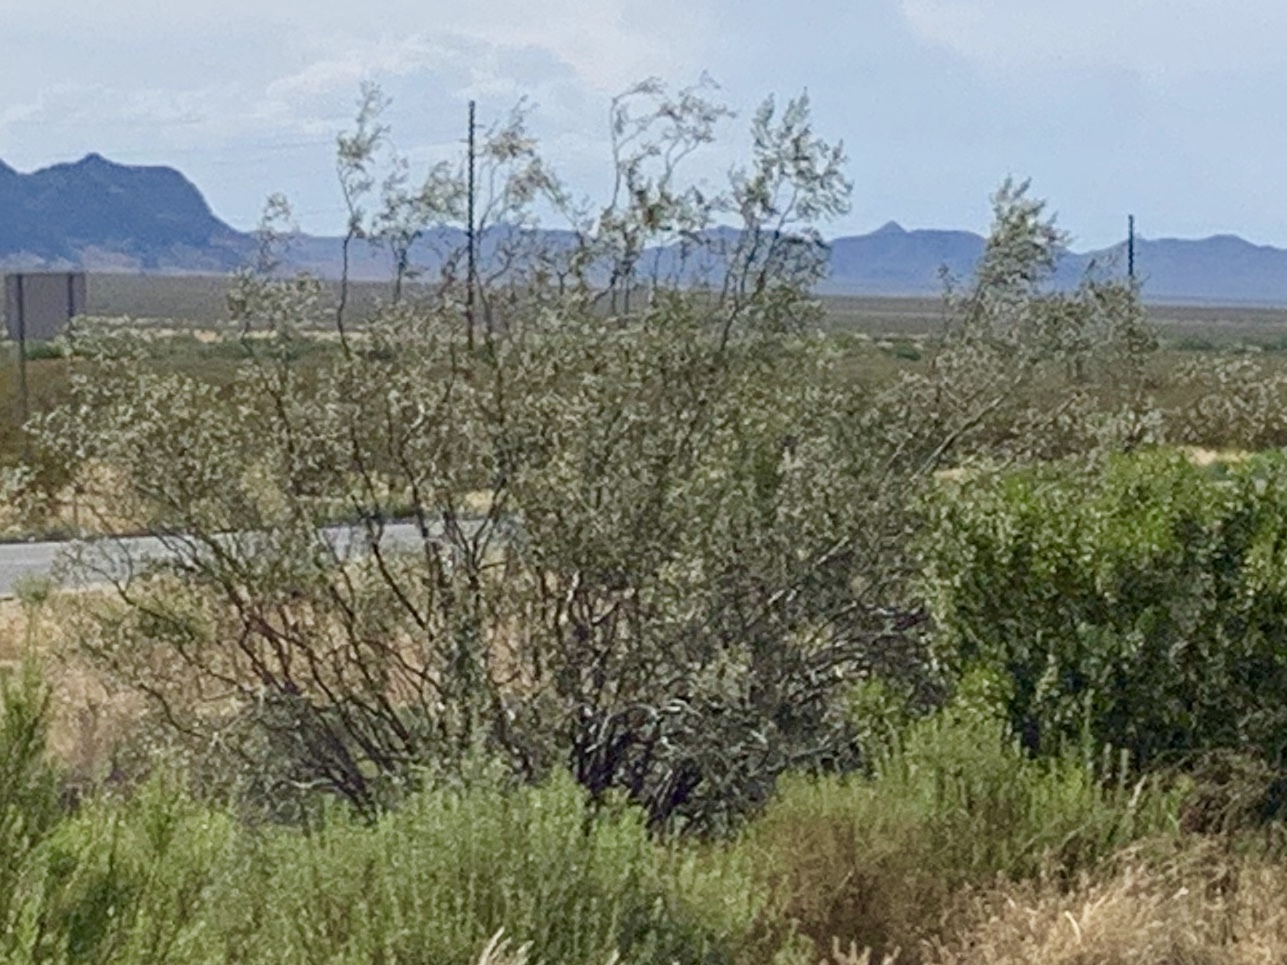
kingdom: Plantae
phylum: Tracheophyta
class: Magnoliopsida
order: Zygophyllales
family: Zygophyllaceae
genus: Larrea
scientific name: Larrea tridentata
